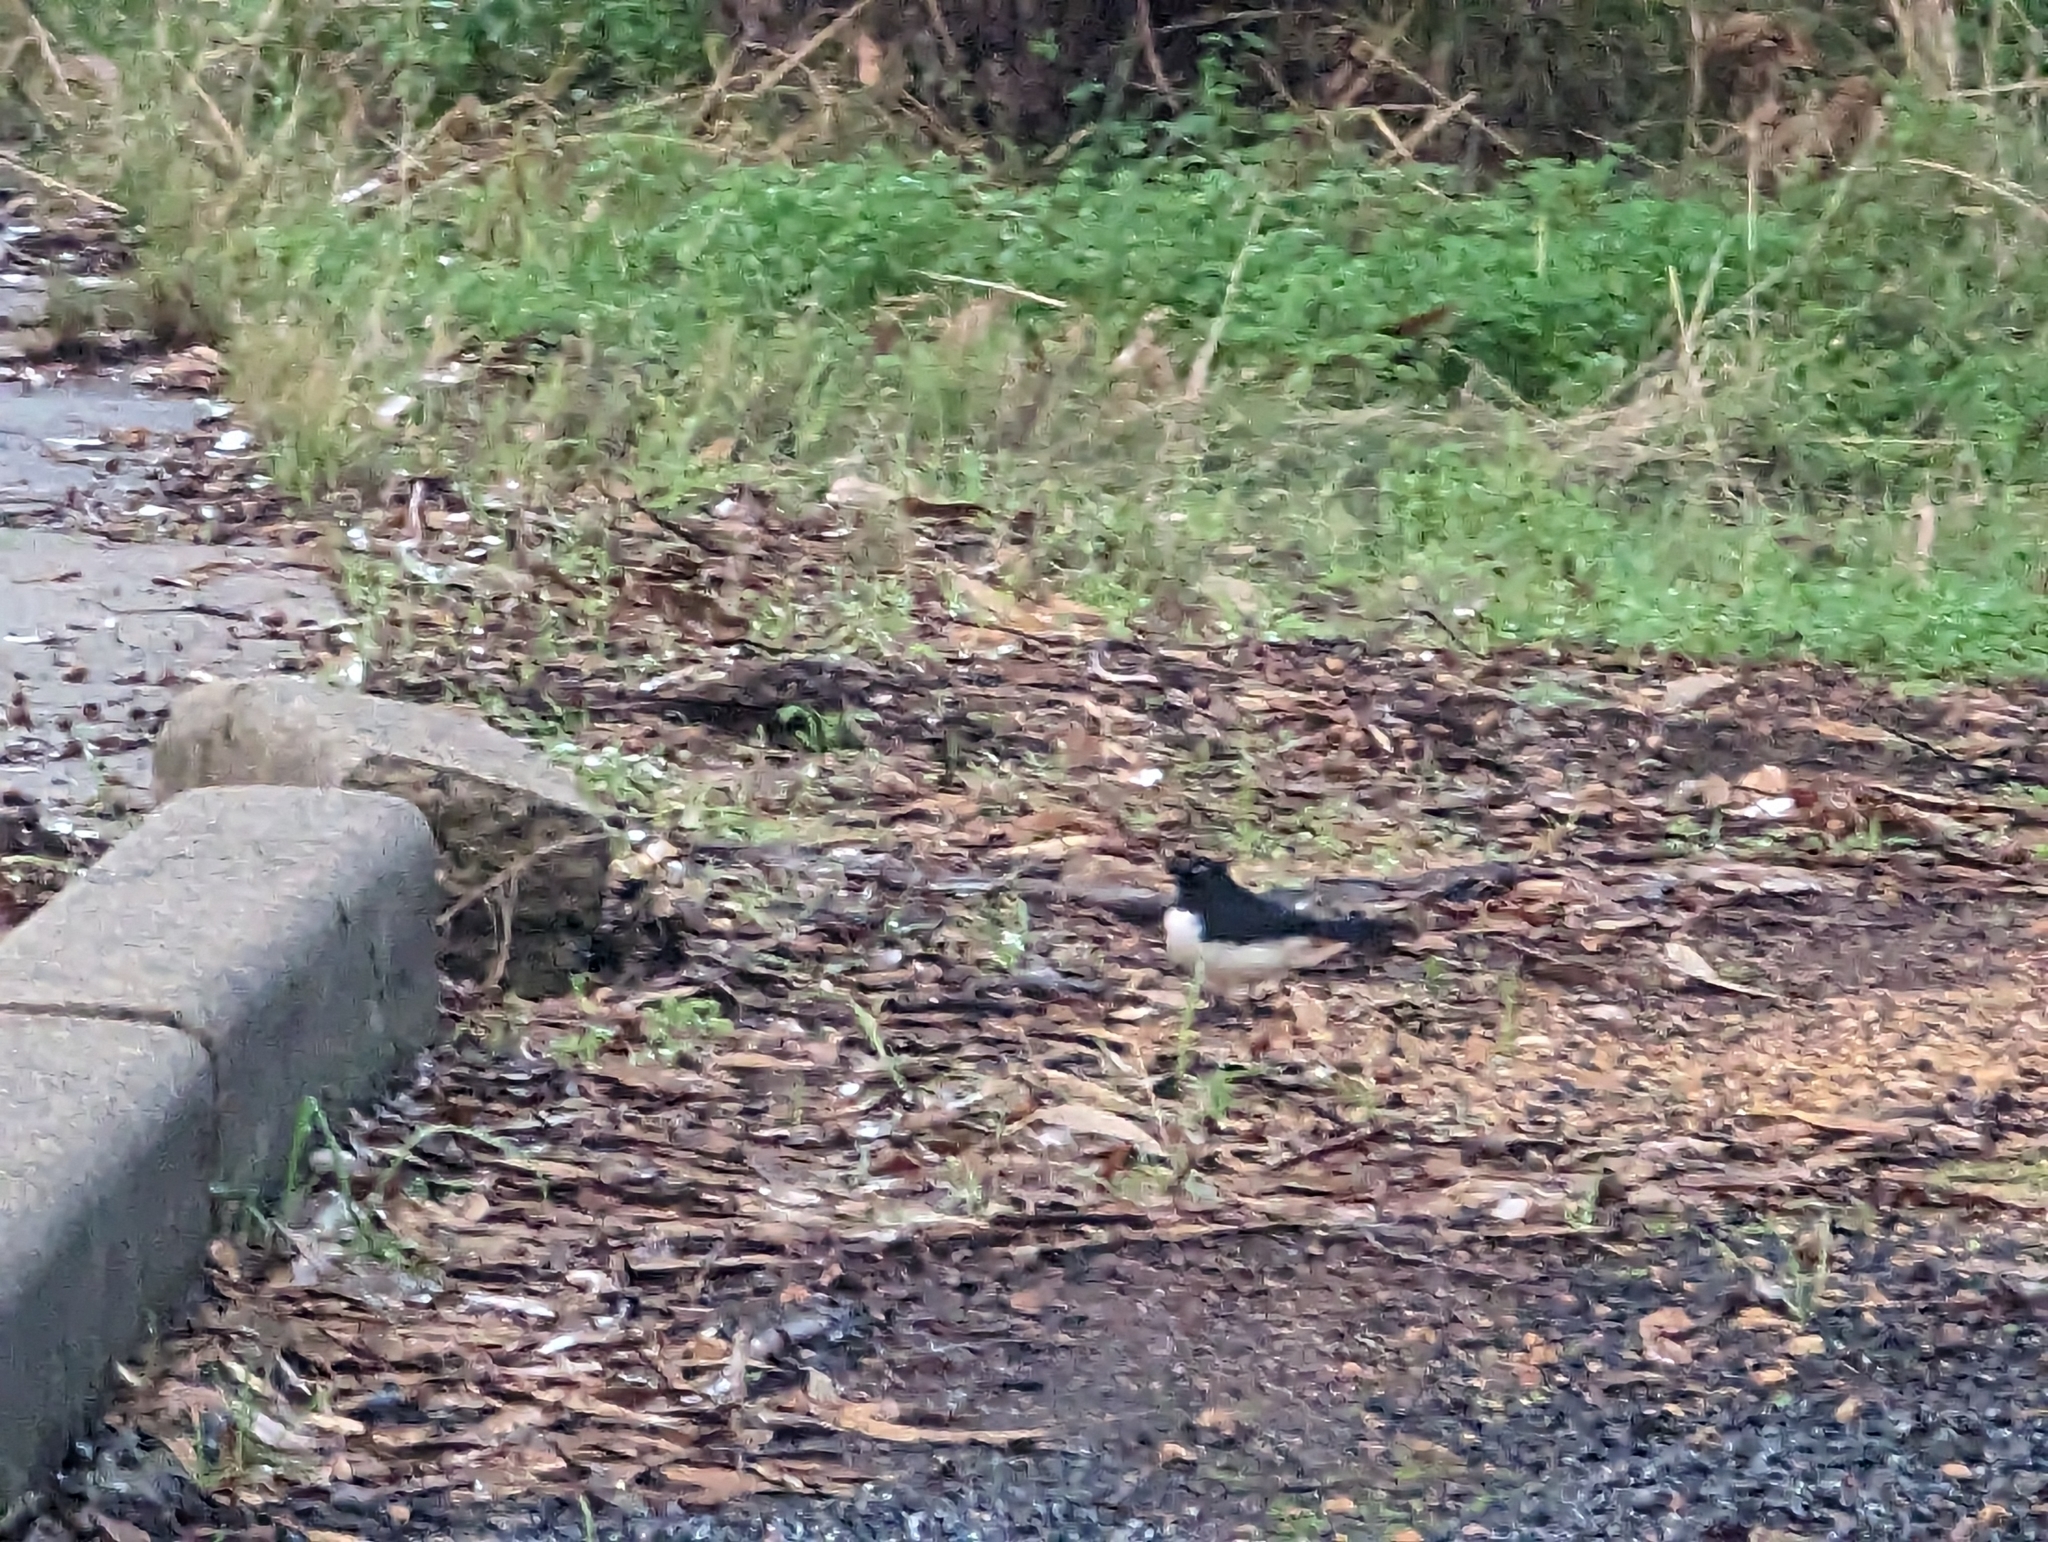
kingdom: Animalia
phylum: Chordata
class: Aves
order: Passeriformes
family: Rhipiduridae
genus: Rhipidura
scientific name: Rhipidura leucophrys
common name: Willie wagtail
